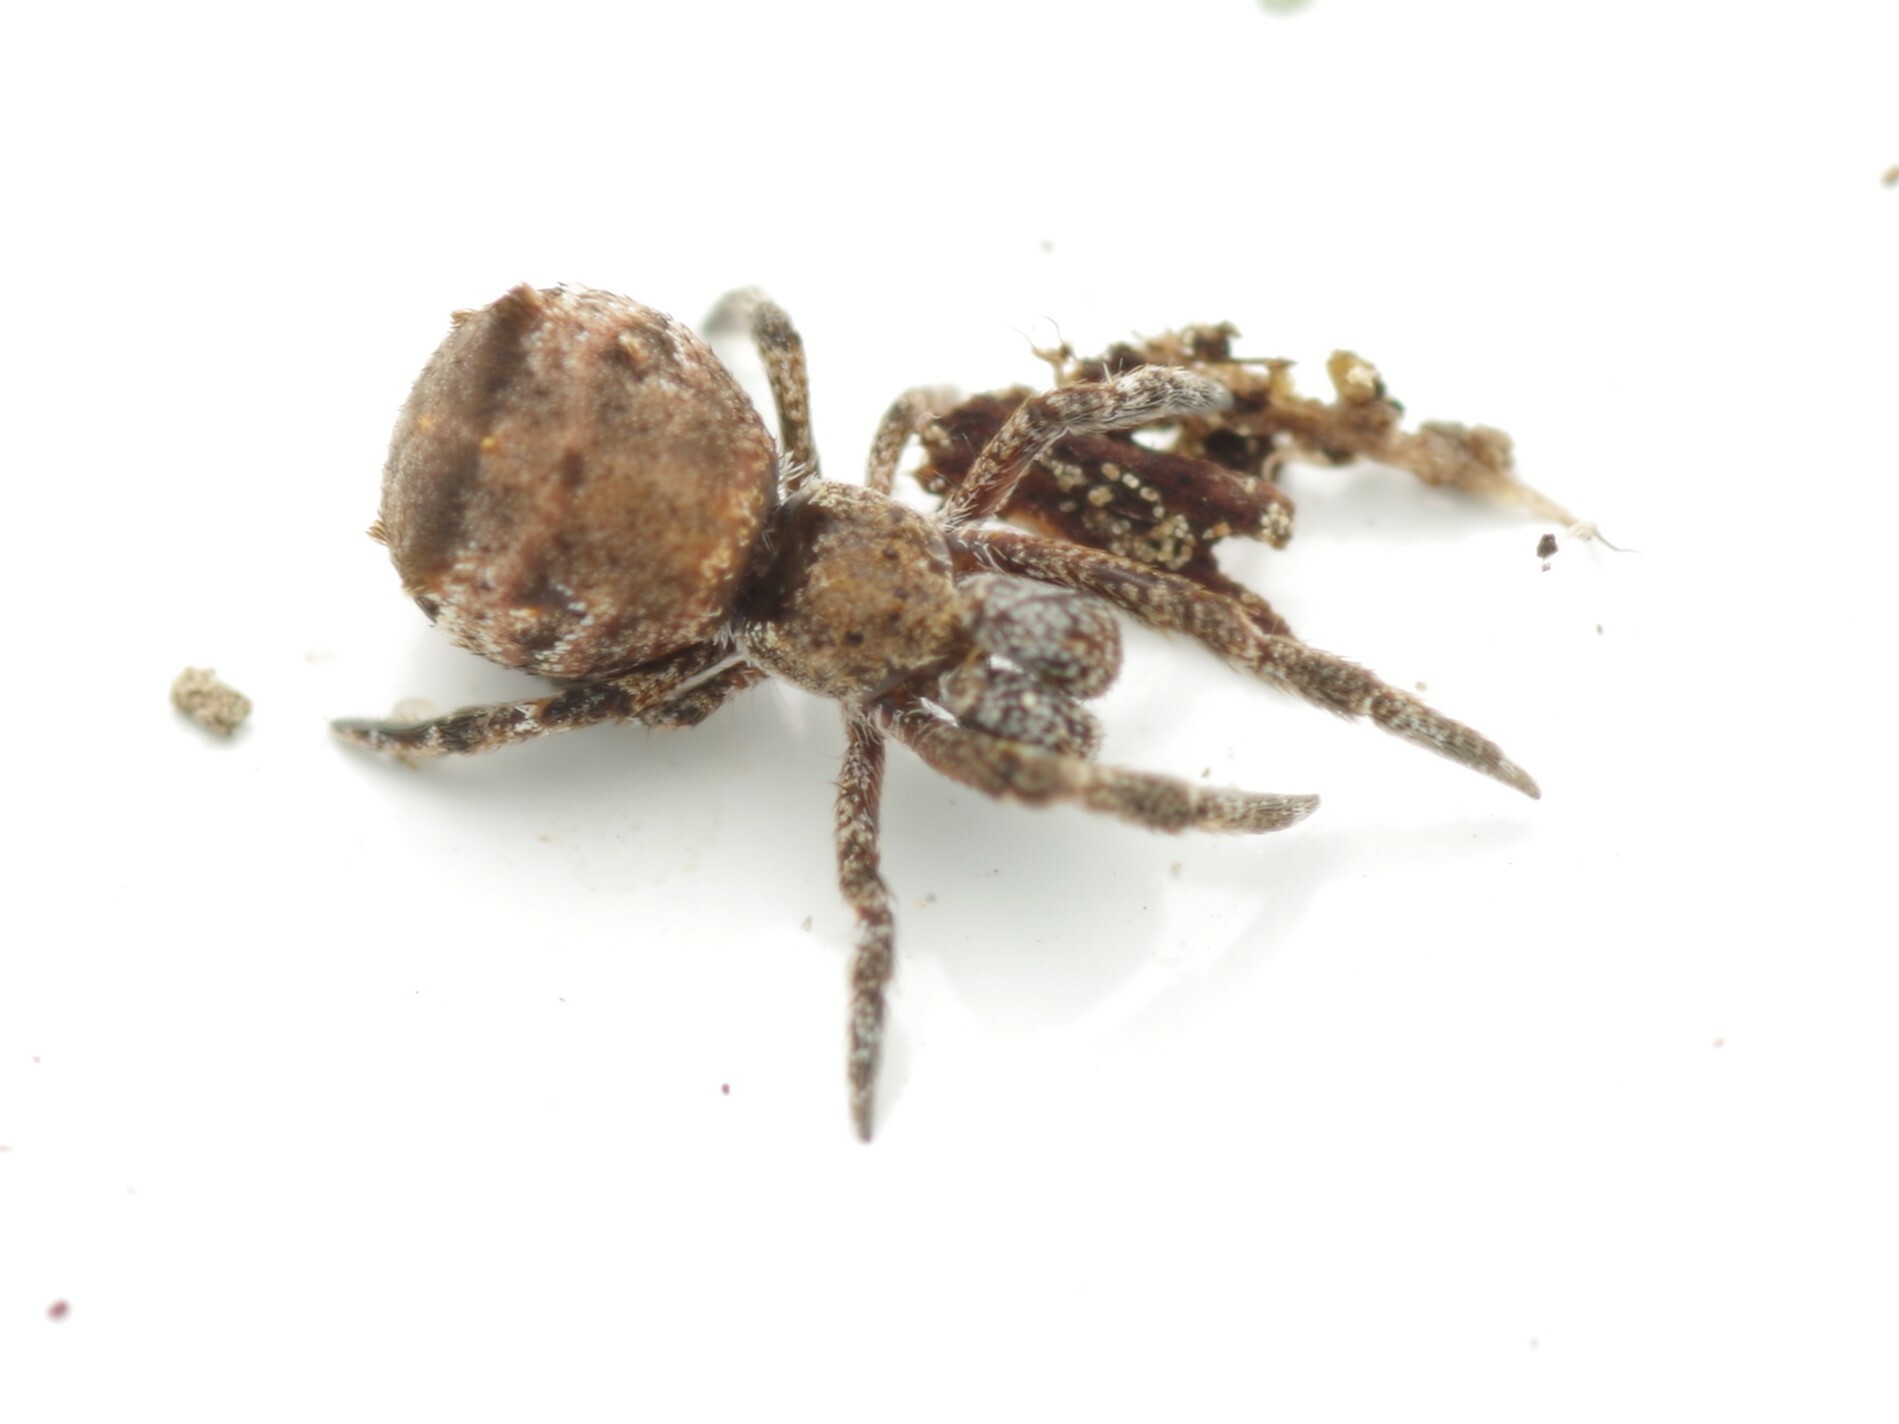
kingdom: Animalia
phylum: Arthropoda
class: Arachnida
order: Araneae
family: Uloboridae
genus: Hyptiotes
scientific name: Hyptiotes paradoxus
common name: Triangle spider
